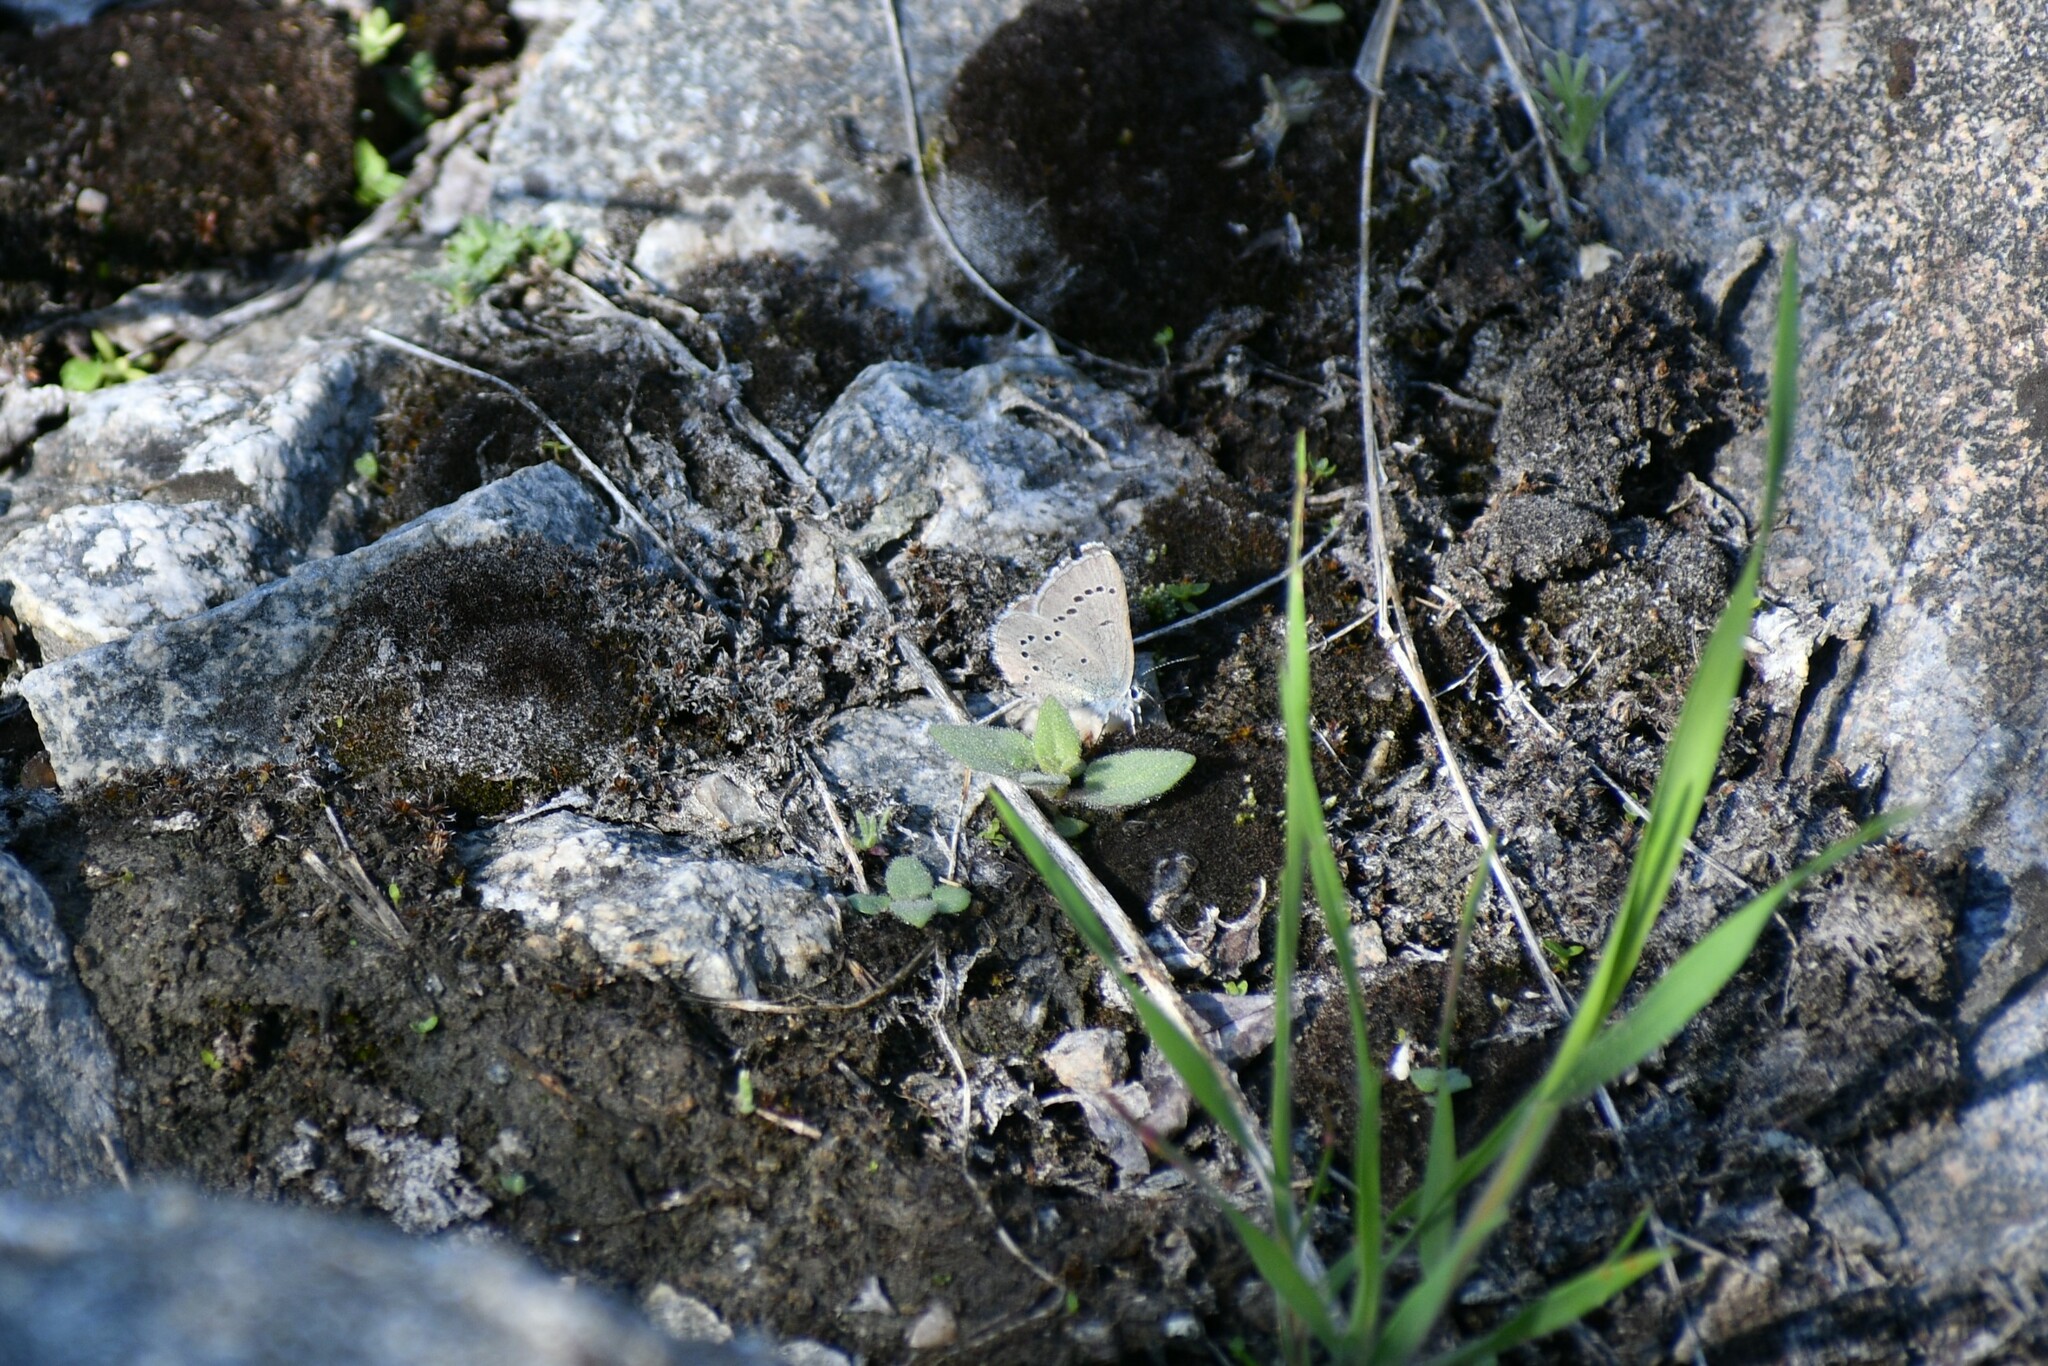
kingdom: Animalia
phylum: Arthropoda
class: Insecta
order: Lepidoptera
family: Lycaenidae
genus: Glaucopsyche
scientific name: Glaucopsyche lygdamus
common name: Silvery blue
